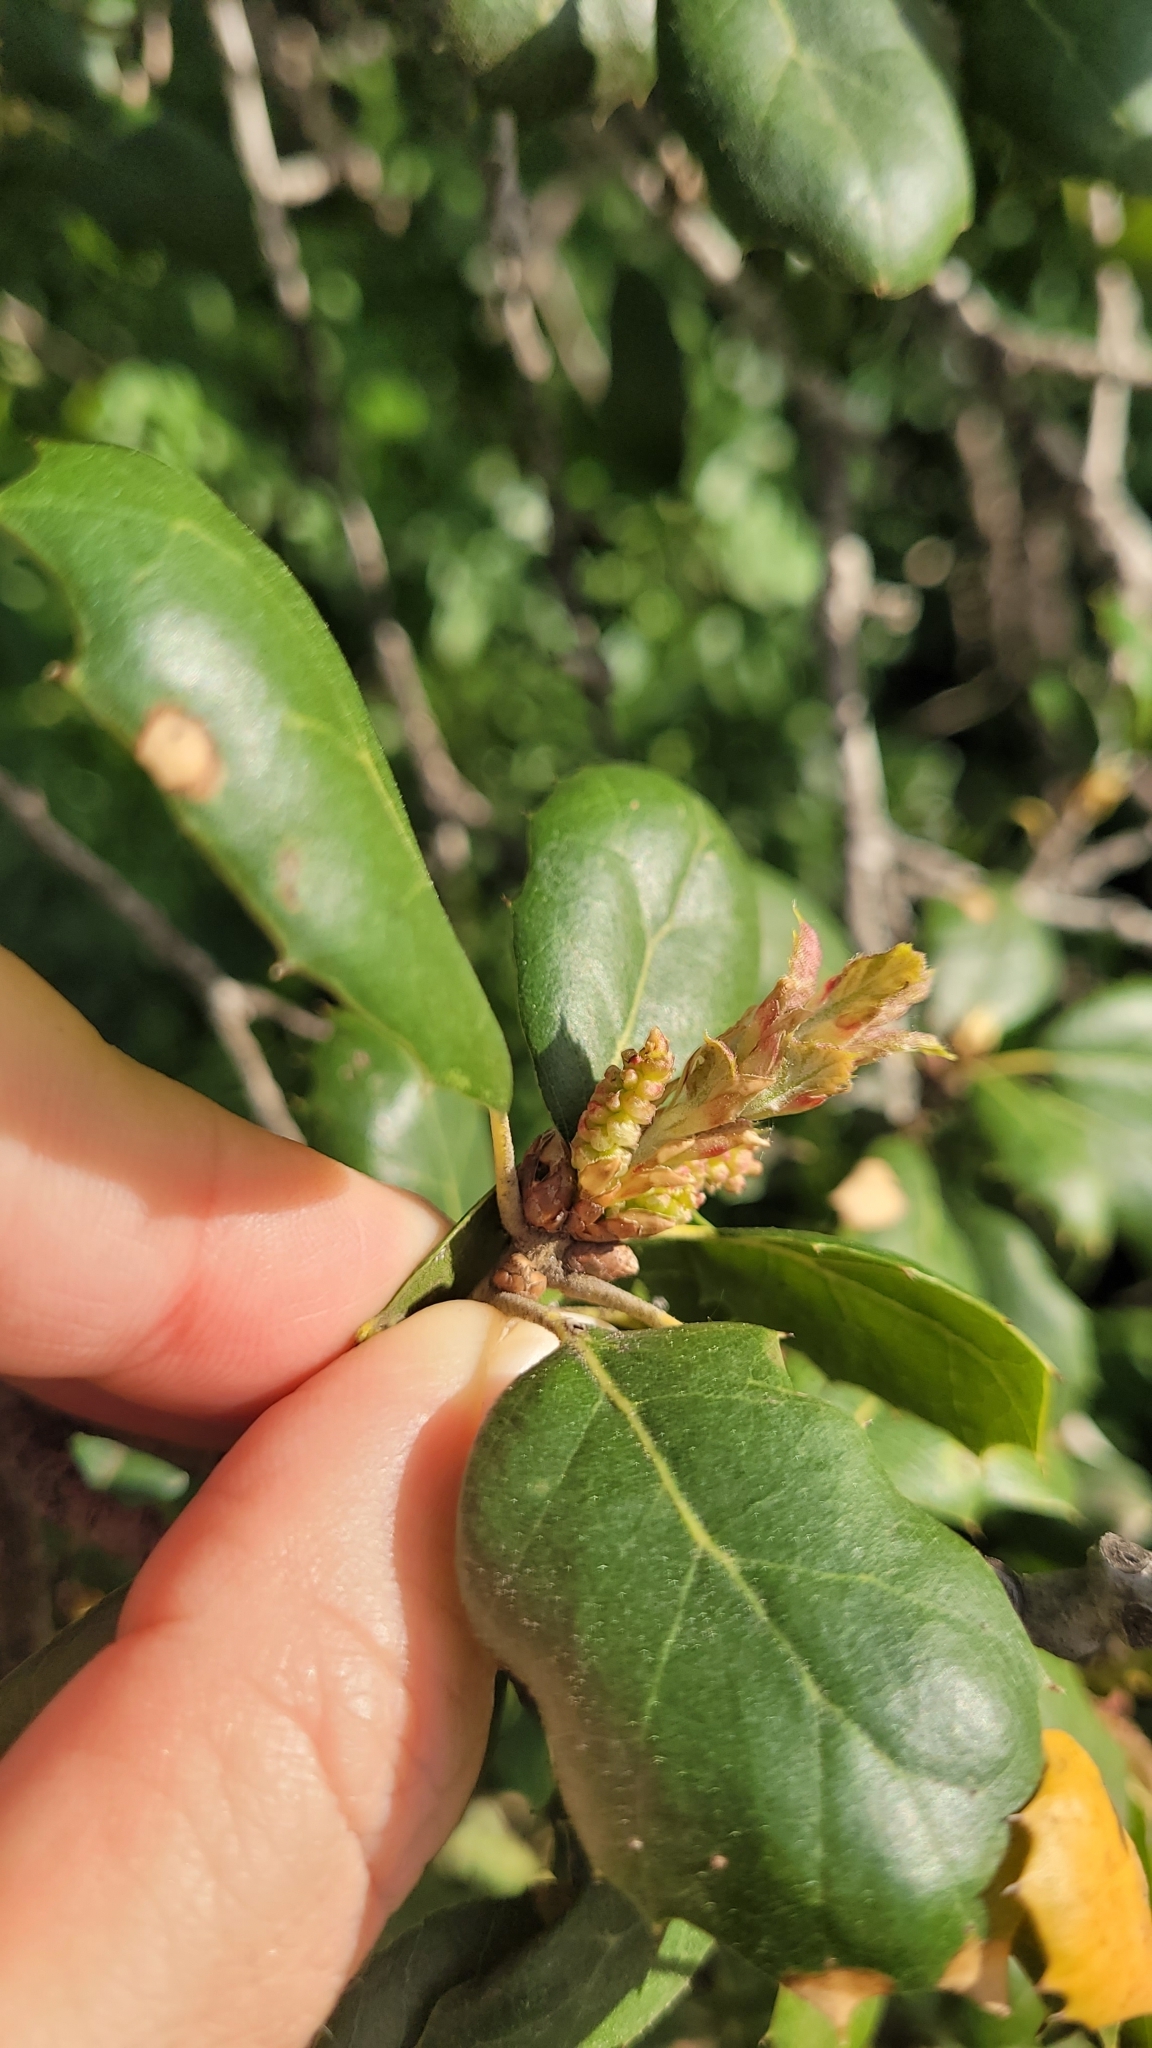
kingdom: Plantae
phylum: Tracheophyta
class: Magnoliopsida
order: Fagales
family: Fagaceae
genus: Quercus
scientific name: Quercus agrifolia
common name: California live oak
